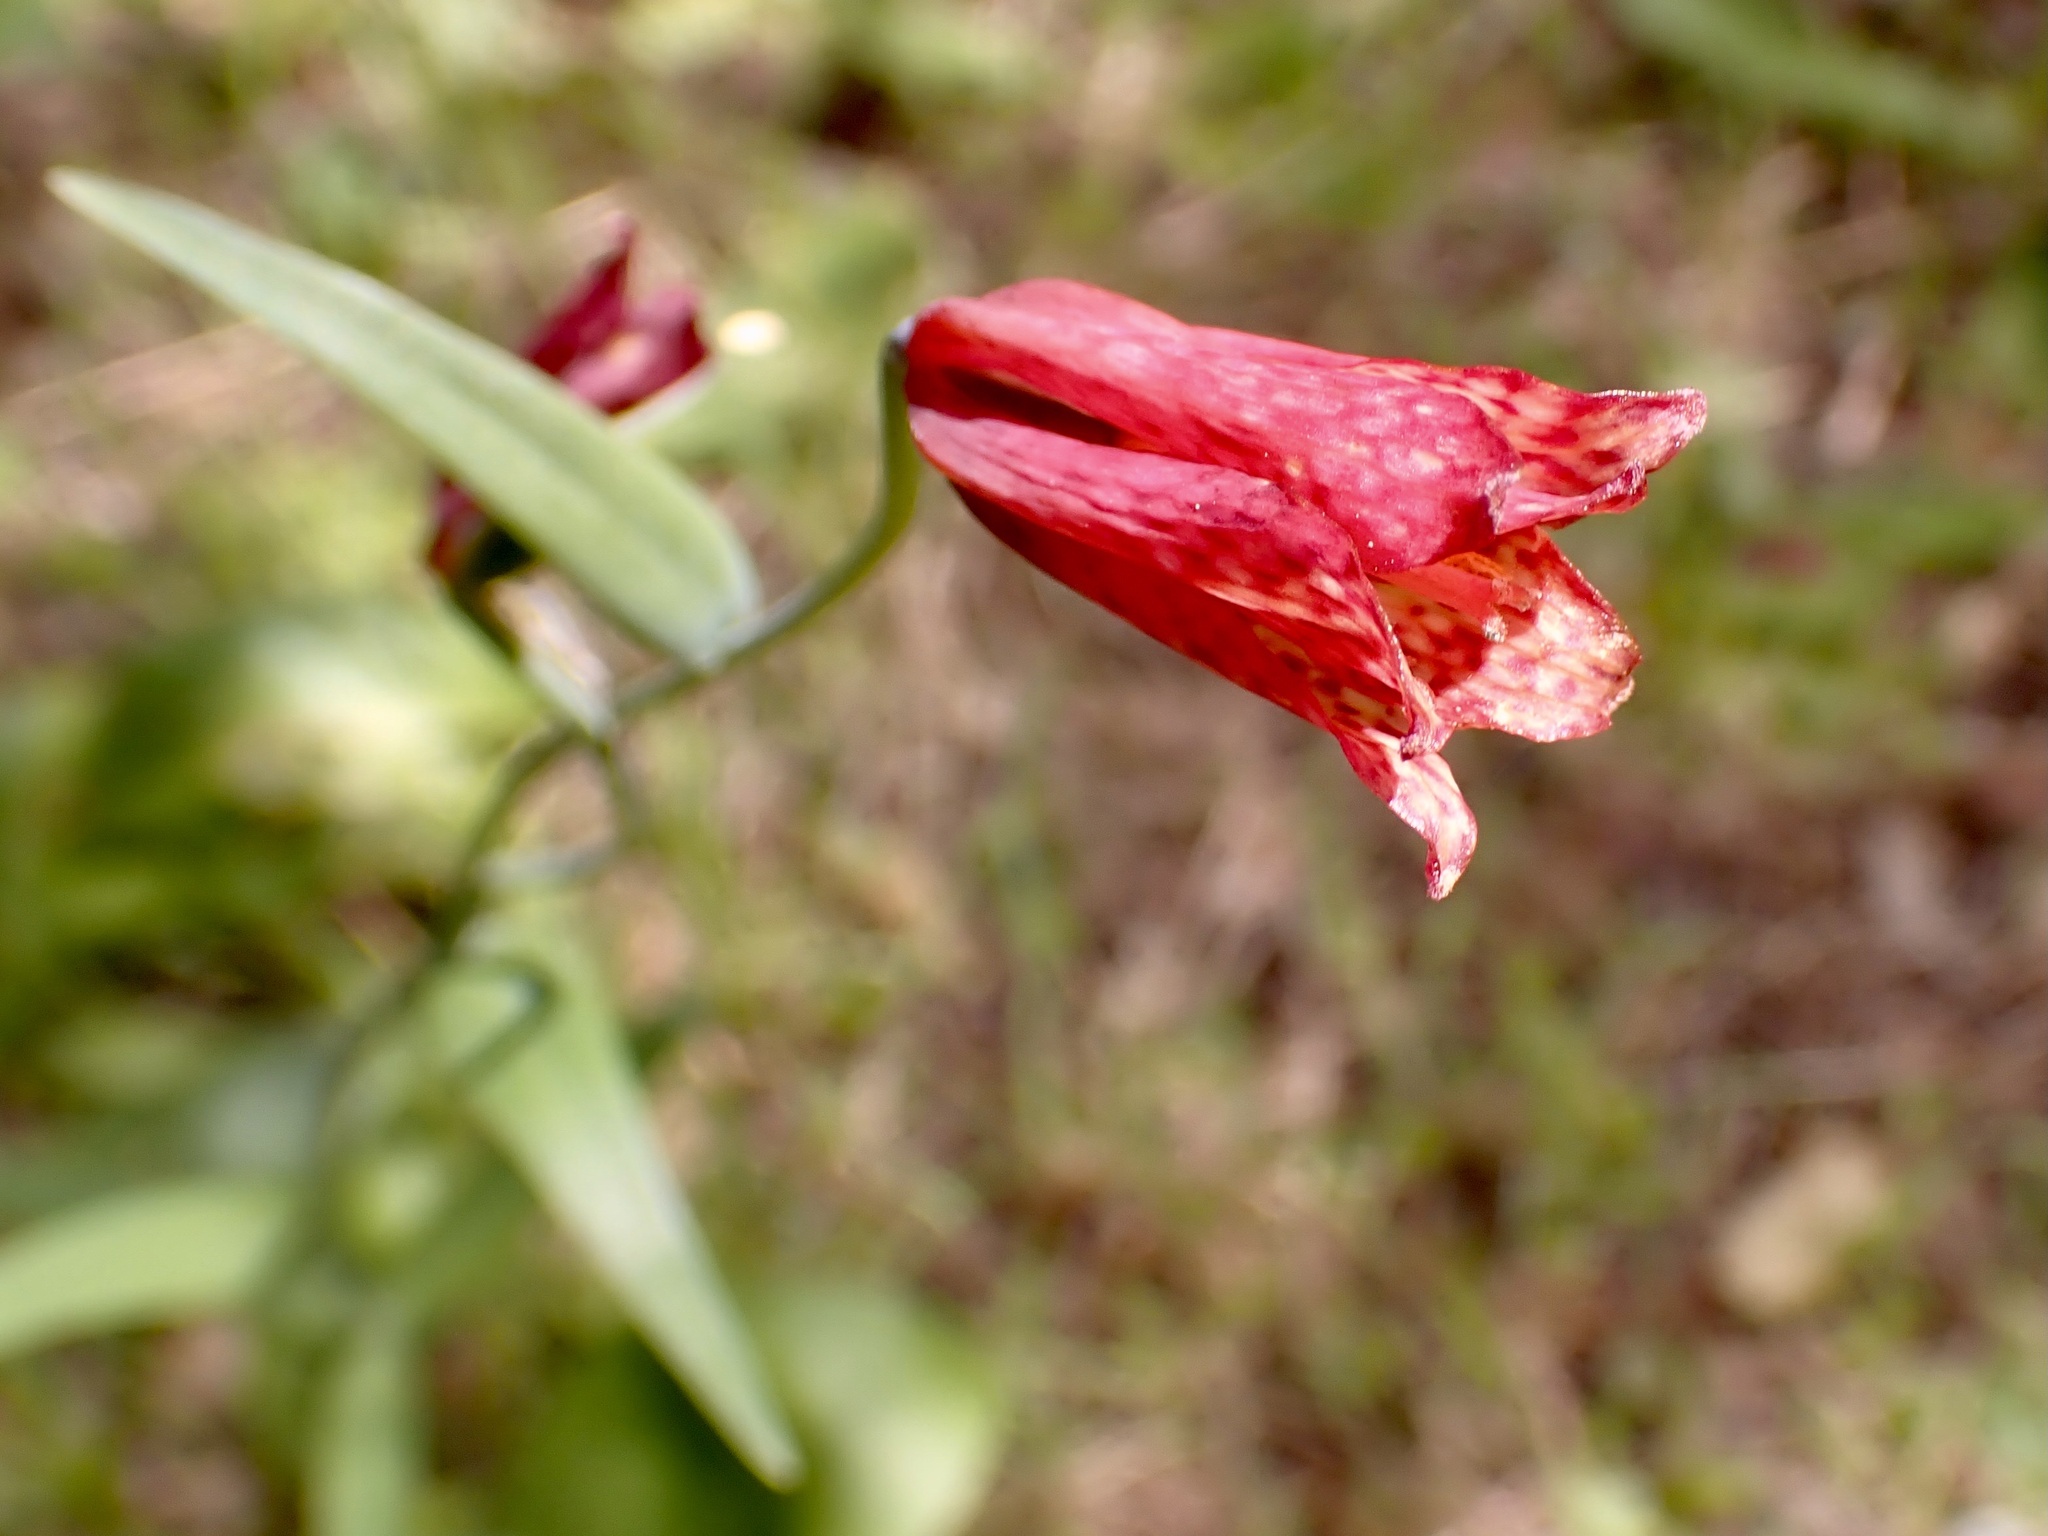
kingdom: Plantae
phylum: Tracheophyta
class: Liliopsida
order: Liliales
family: Liliaceae
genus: Fritillaria
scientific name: Fritillaria recurva
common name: Scarlet fritillary
